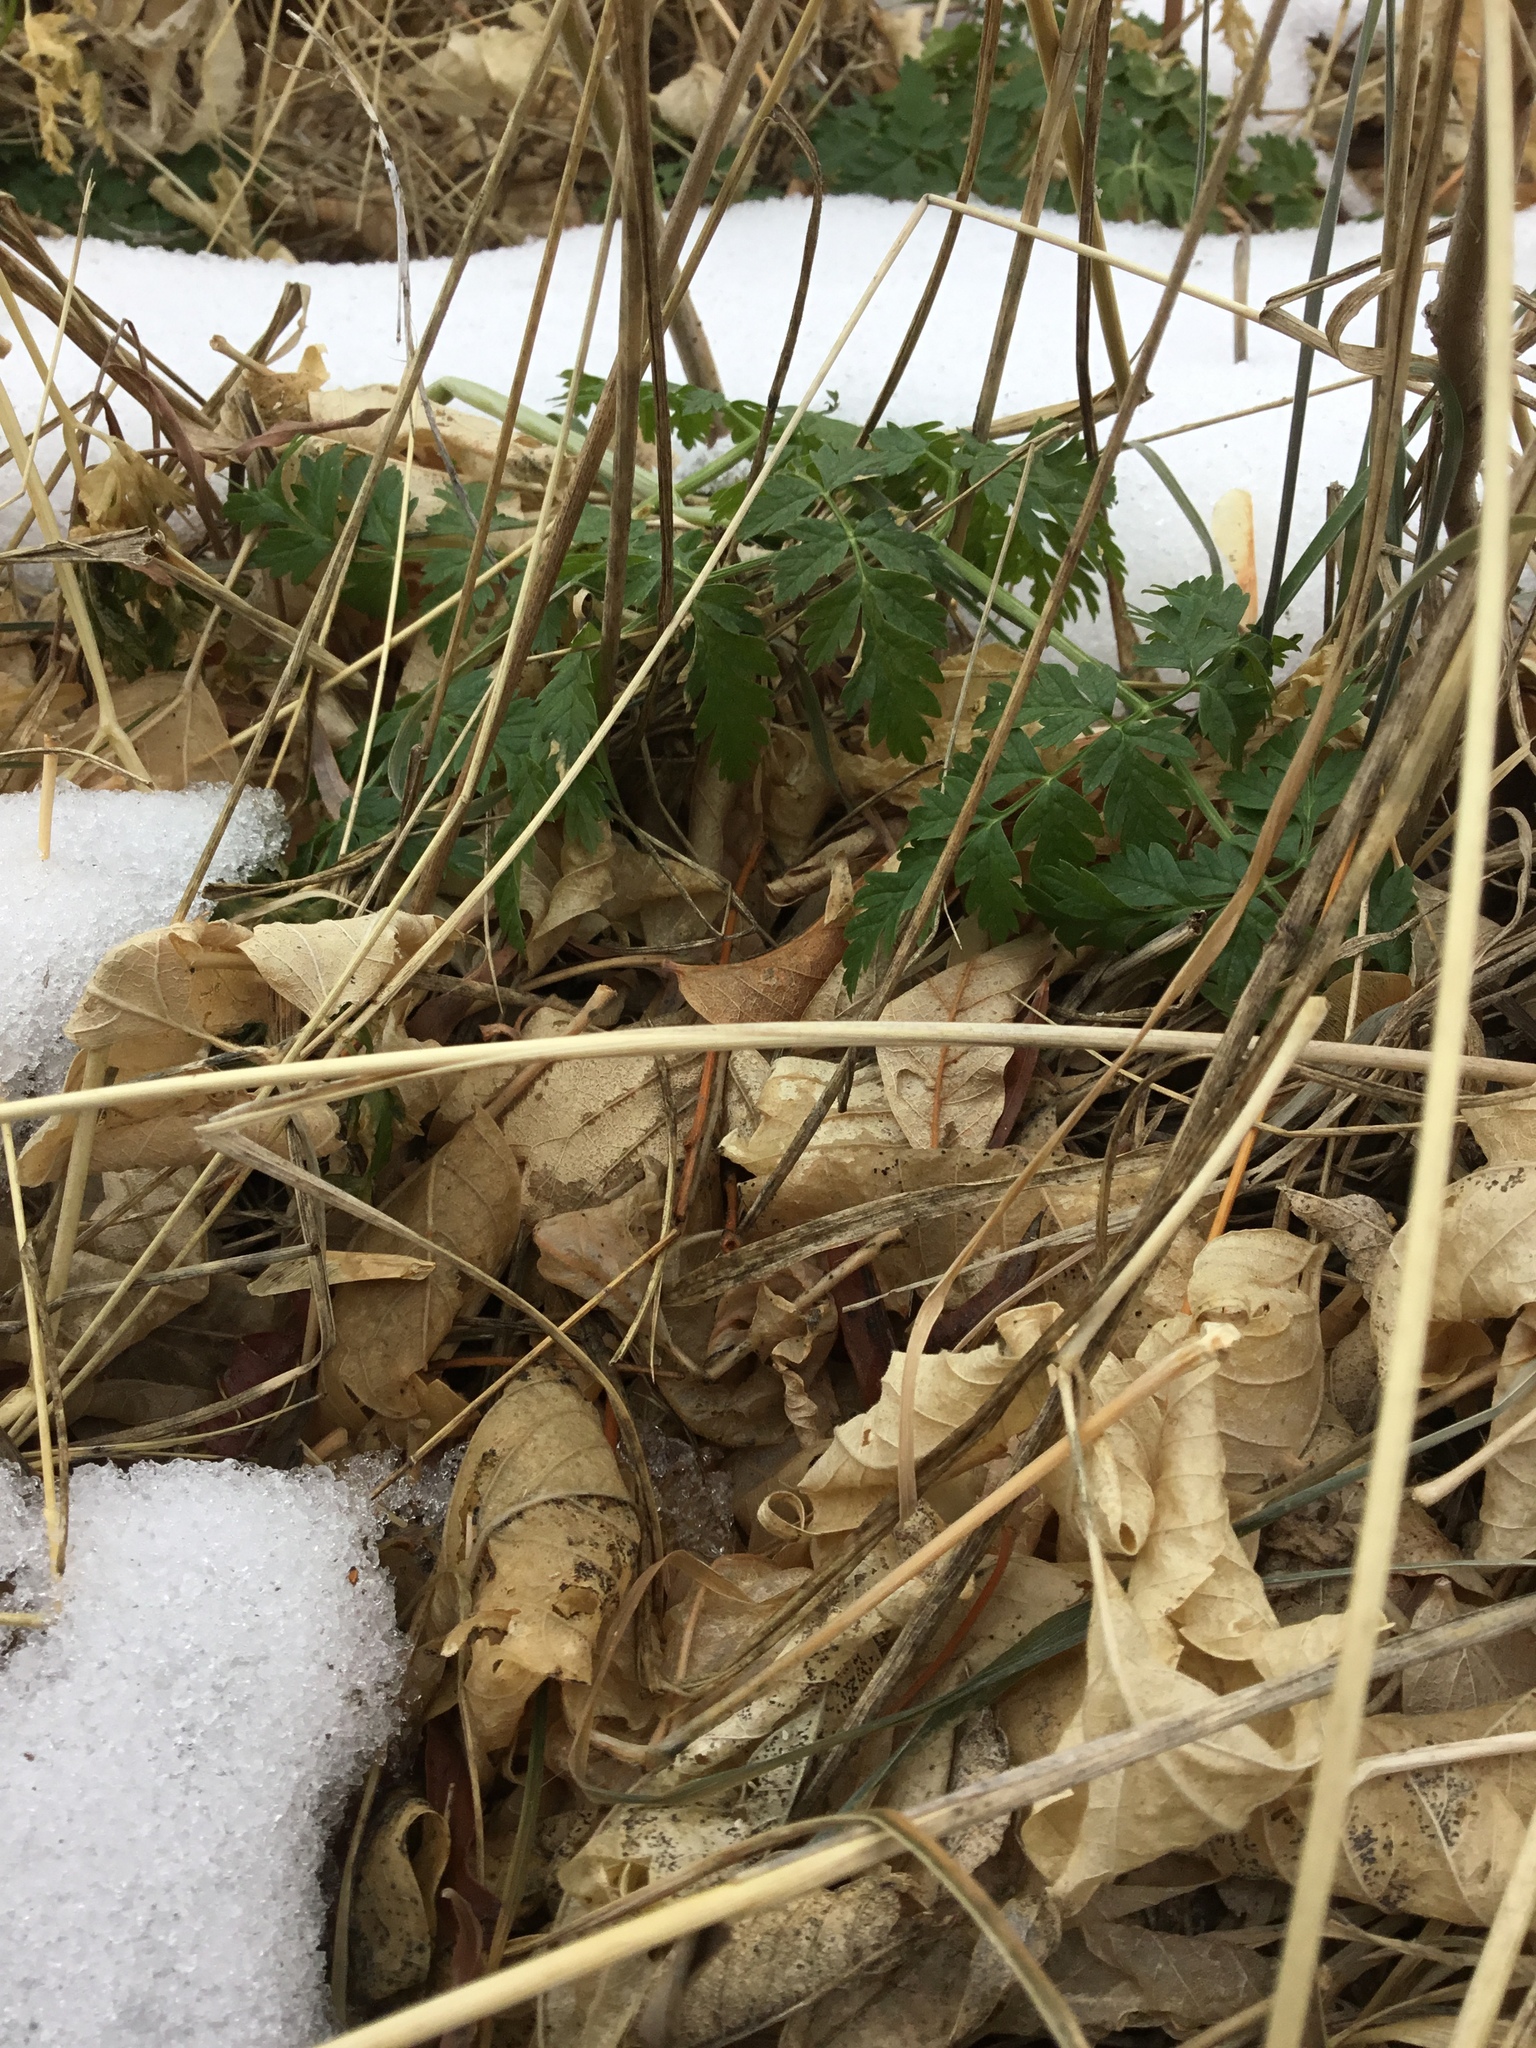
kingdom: Plantae
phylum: Tracheophyta
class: Magnoliopsida
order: Apiales
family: Apiaceae
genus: Conium
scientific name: Conium maculatum
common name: Hemlock
